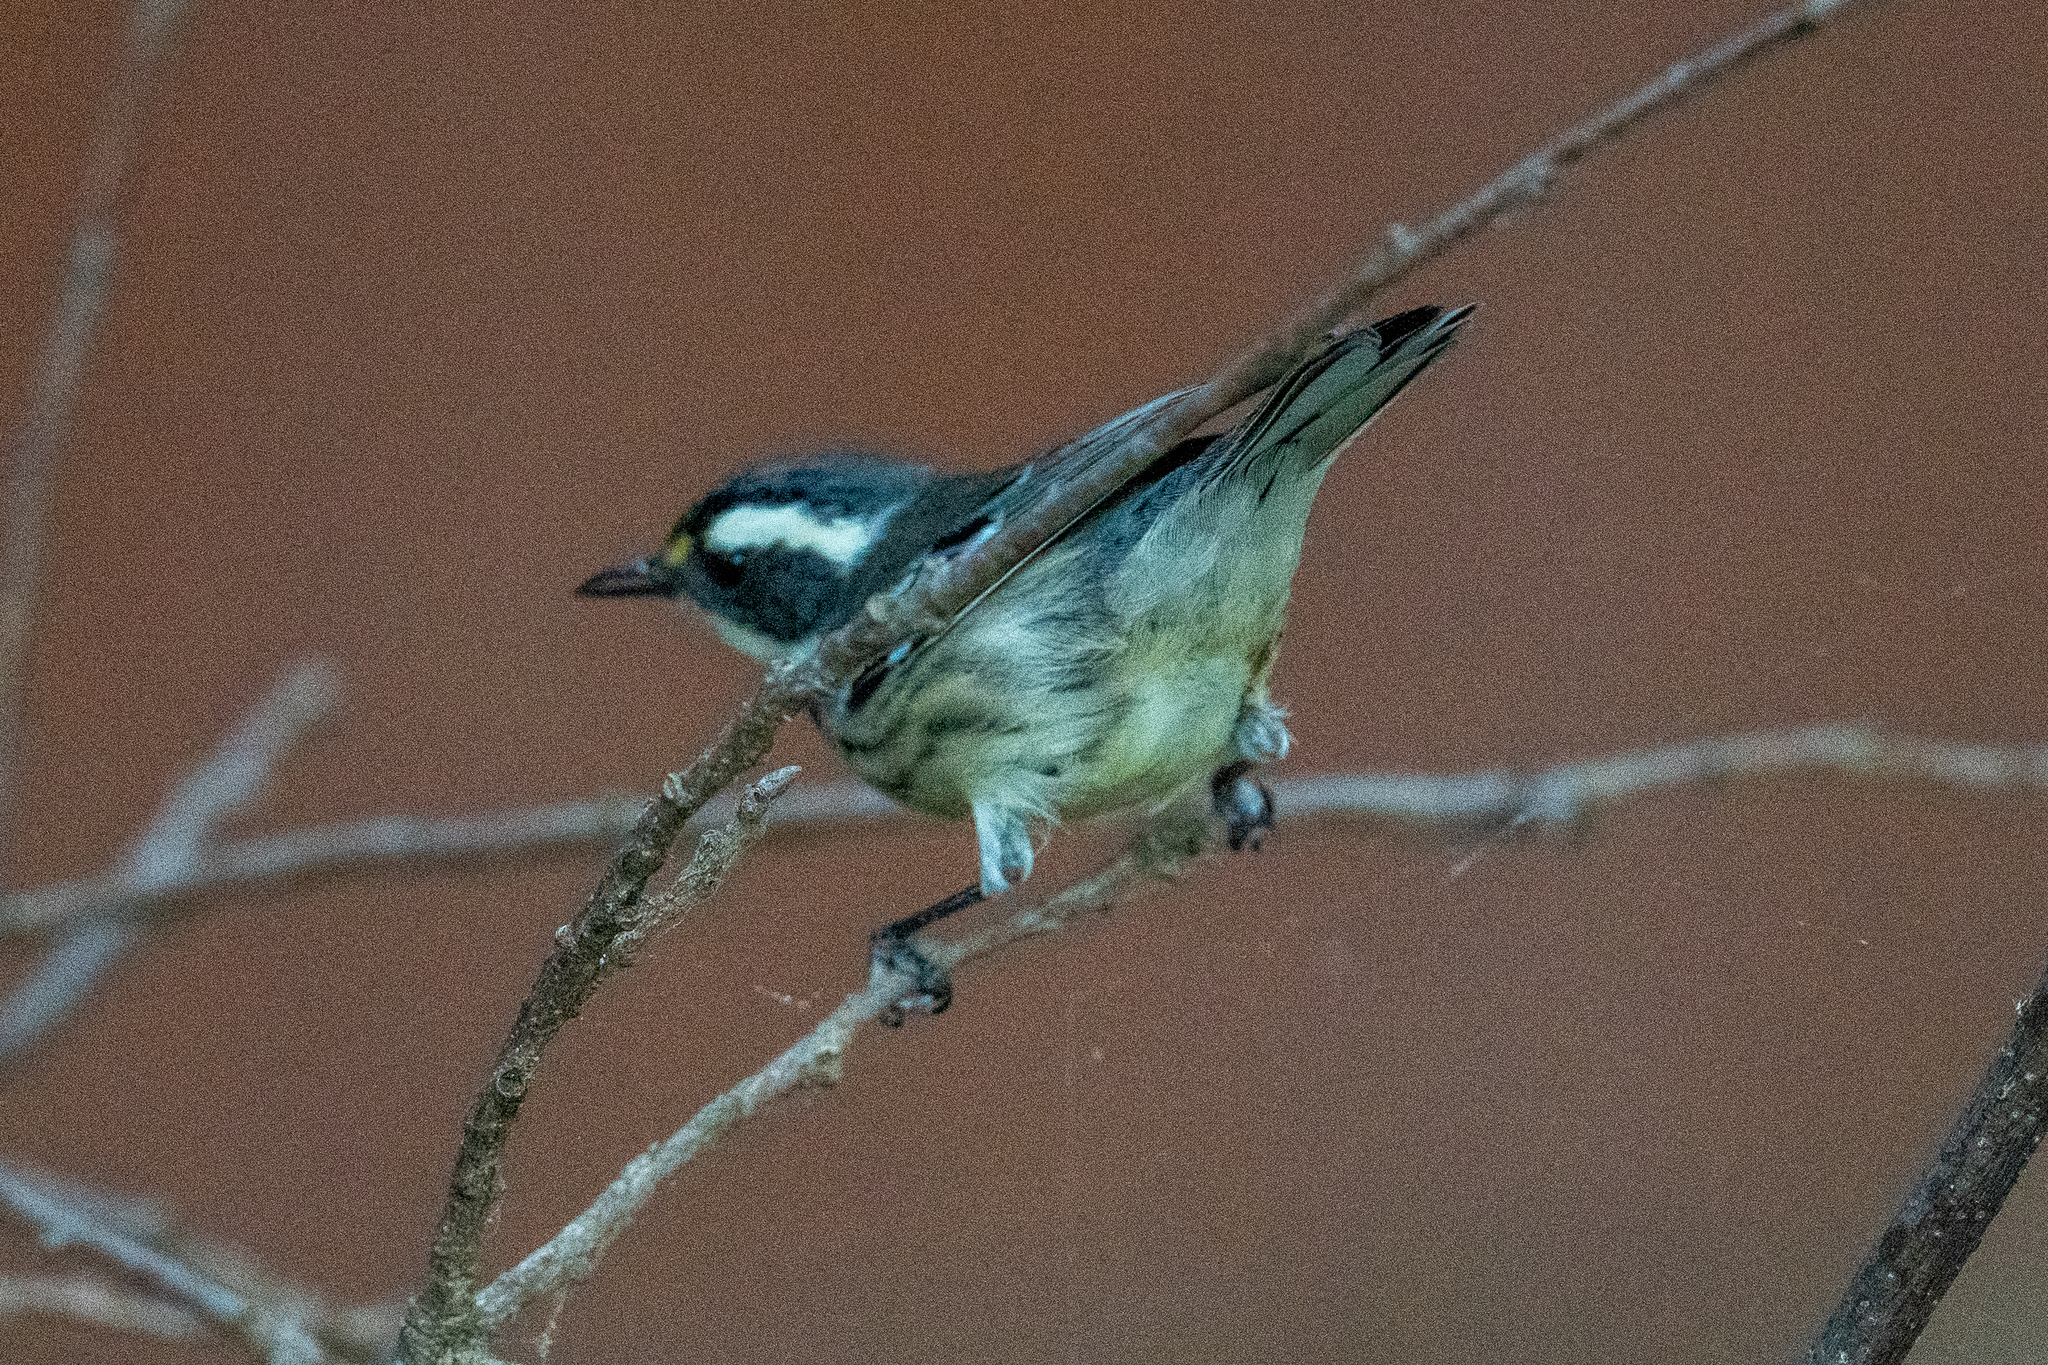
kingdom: Animalia
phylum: Chordata
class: Aves
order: Passeriformes
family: Parulidae
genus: Setophaga
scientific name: Setophaga nigrescens
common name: Black-throated gray warbler
